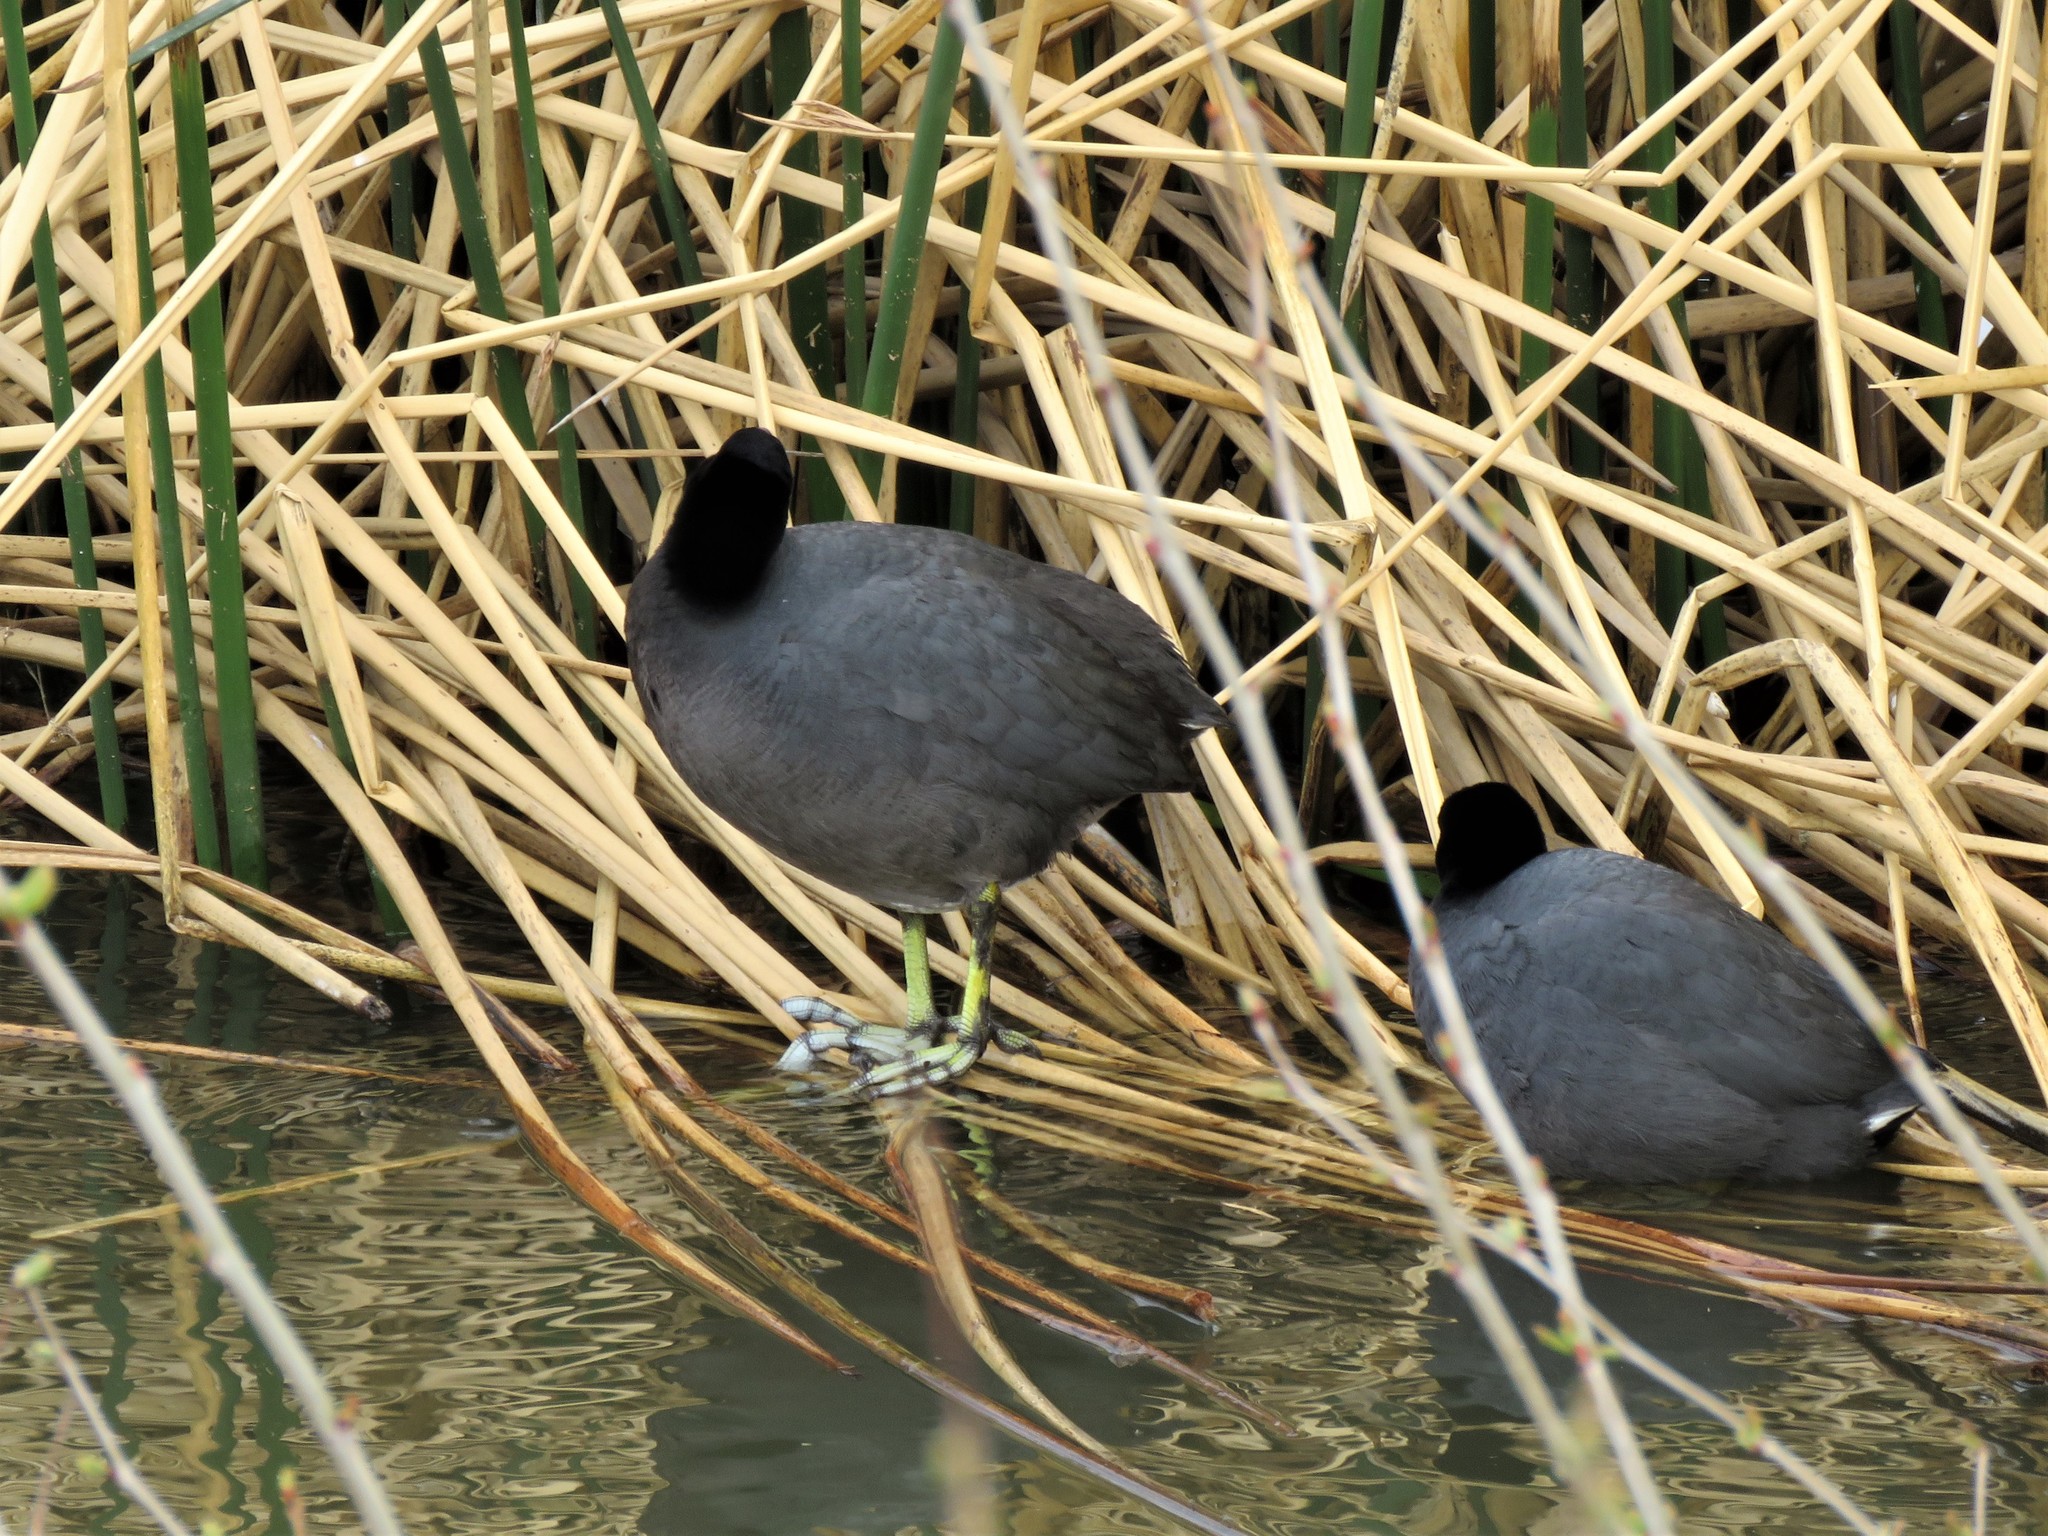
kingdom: Animalia
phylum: Chordata
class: Aves
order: Gruiformes
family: Rallidae
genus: Fulica
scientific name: Fulica americana
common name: American coot
